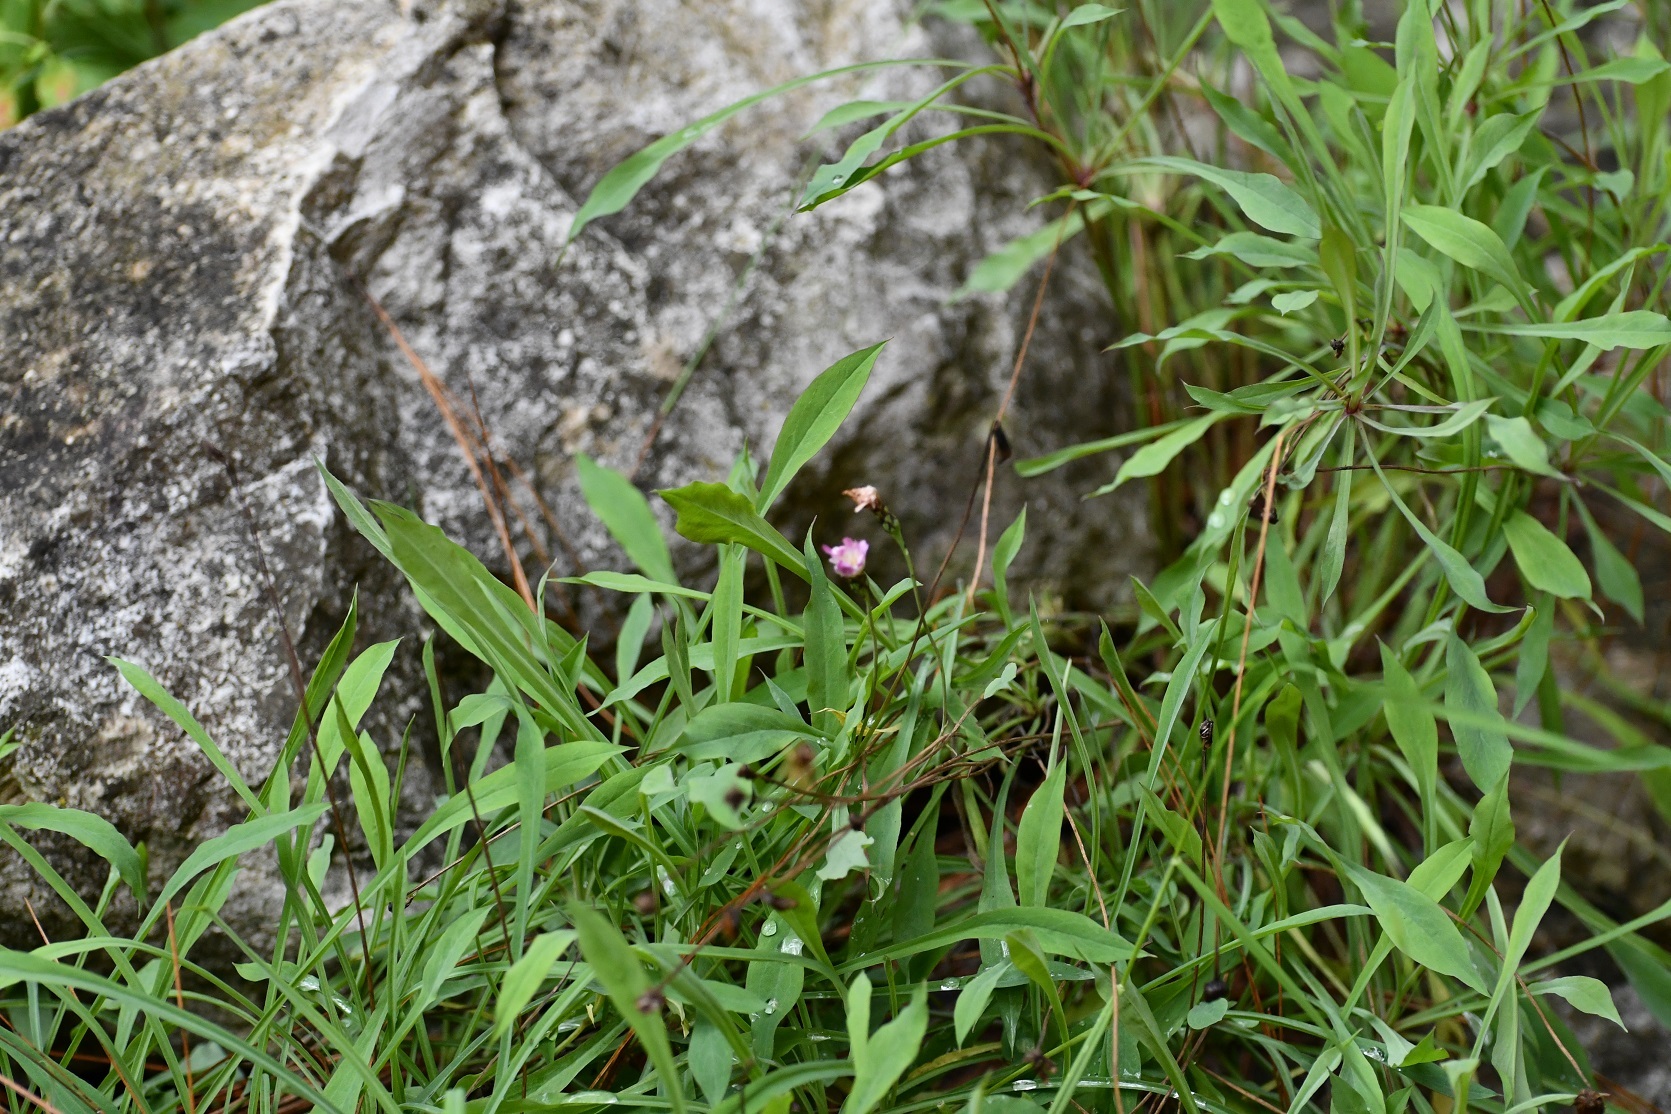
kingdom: Plantae
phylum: Tracheophyta
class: Magnoliopsida
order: Asterales
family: Asteraceae
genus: Pinaropappus
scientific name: Pinaropappus spathulatus
